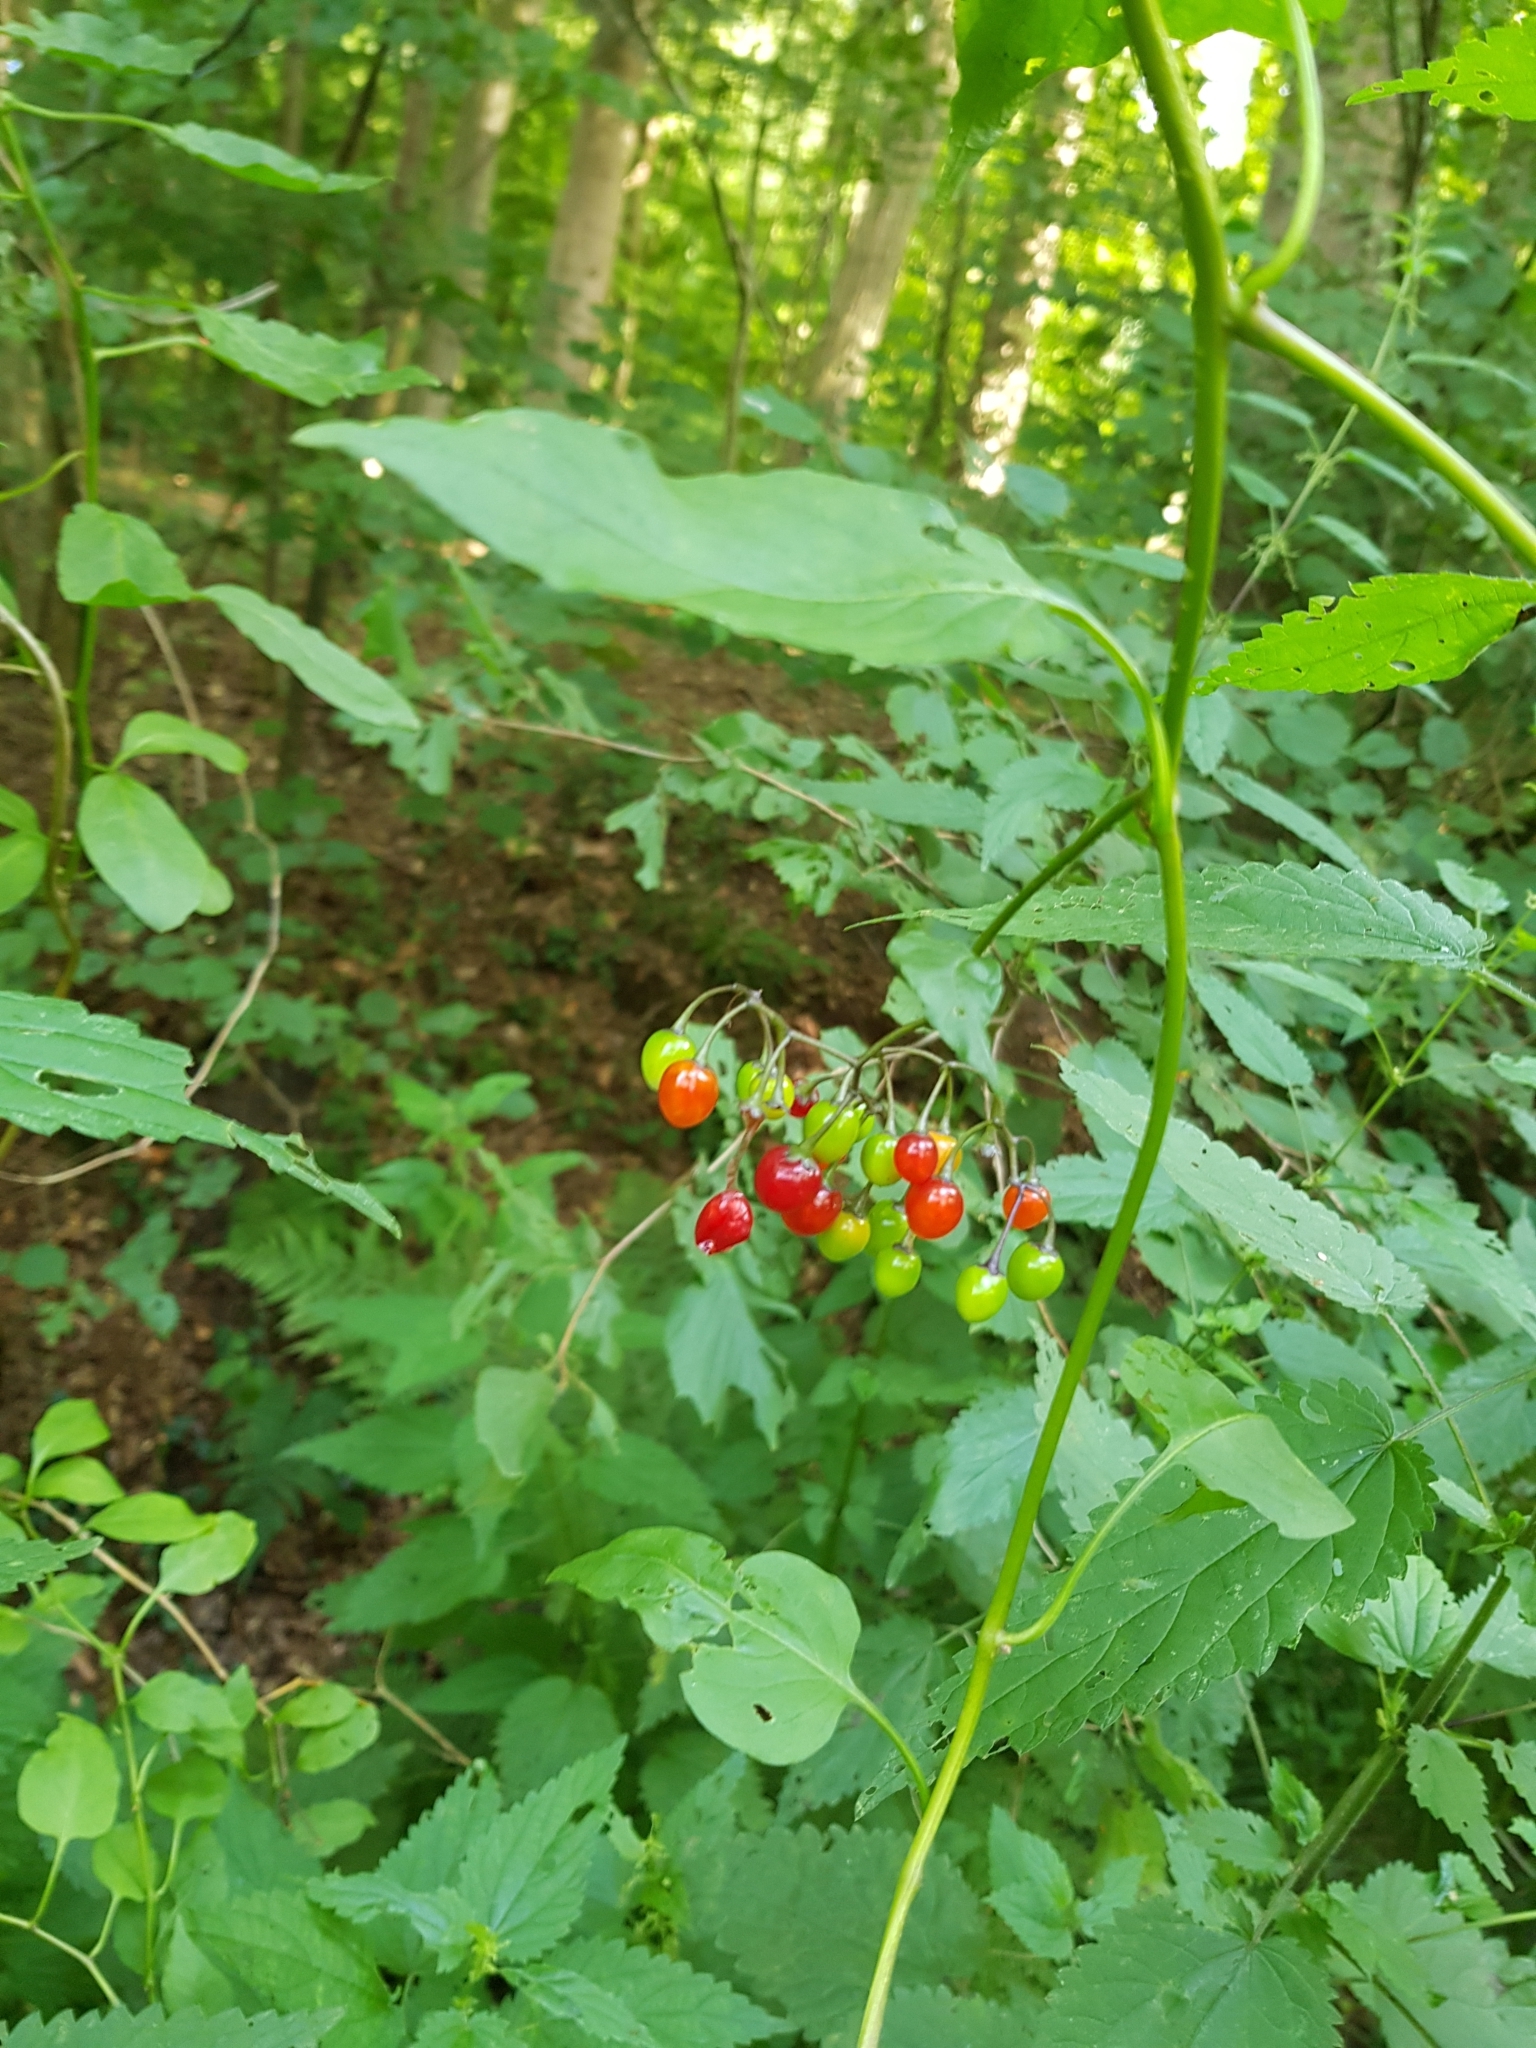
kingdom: Plantae
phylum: Tracheophyta
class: Magnoliopsida
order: Solanales
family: Solanaceae
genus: Solanum
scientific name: Solanum dulcamara
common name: Climbing nightshade
